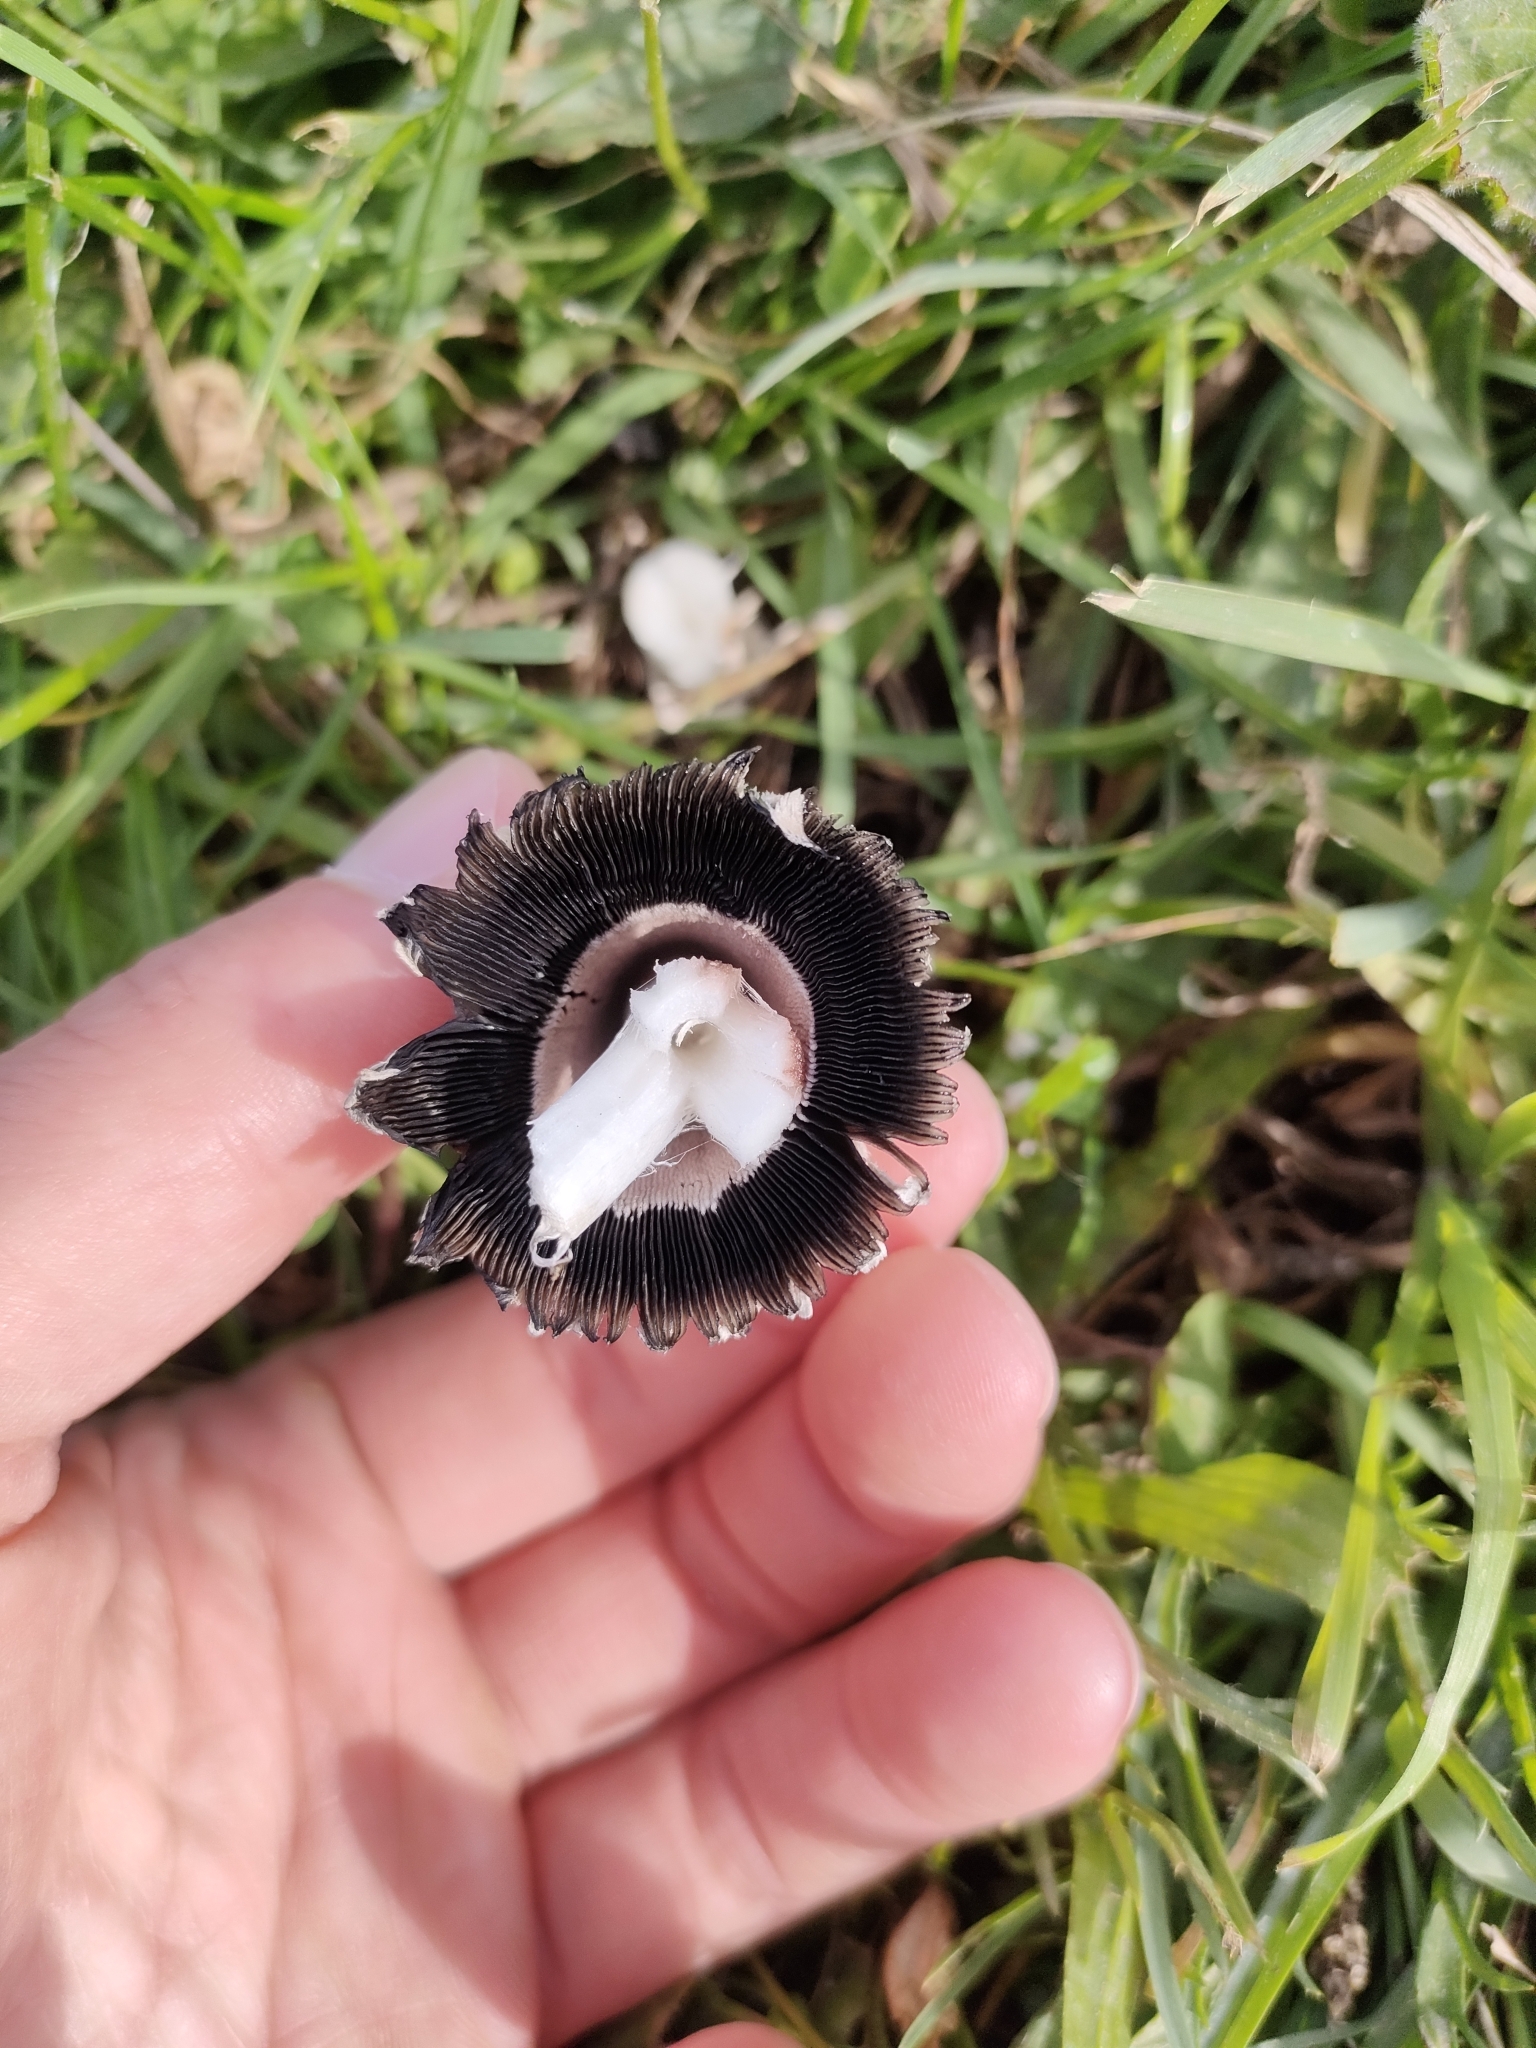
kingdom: Fungi
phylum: Basidiomycota
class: Agaricomycetes
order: Agaricales
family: Agaricaceae
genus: Coprinus
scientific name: Coprinus comatus
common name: Lawyer's wig
